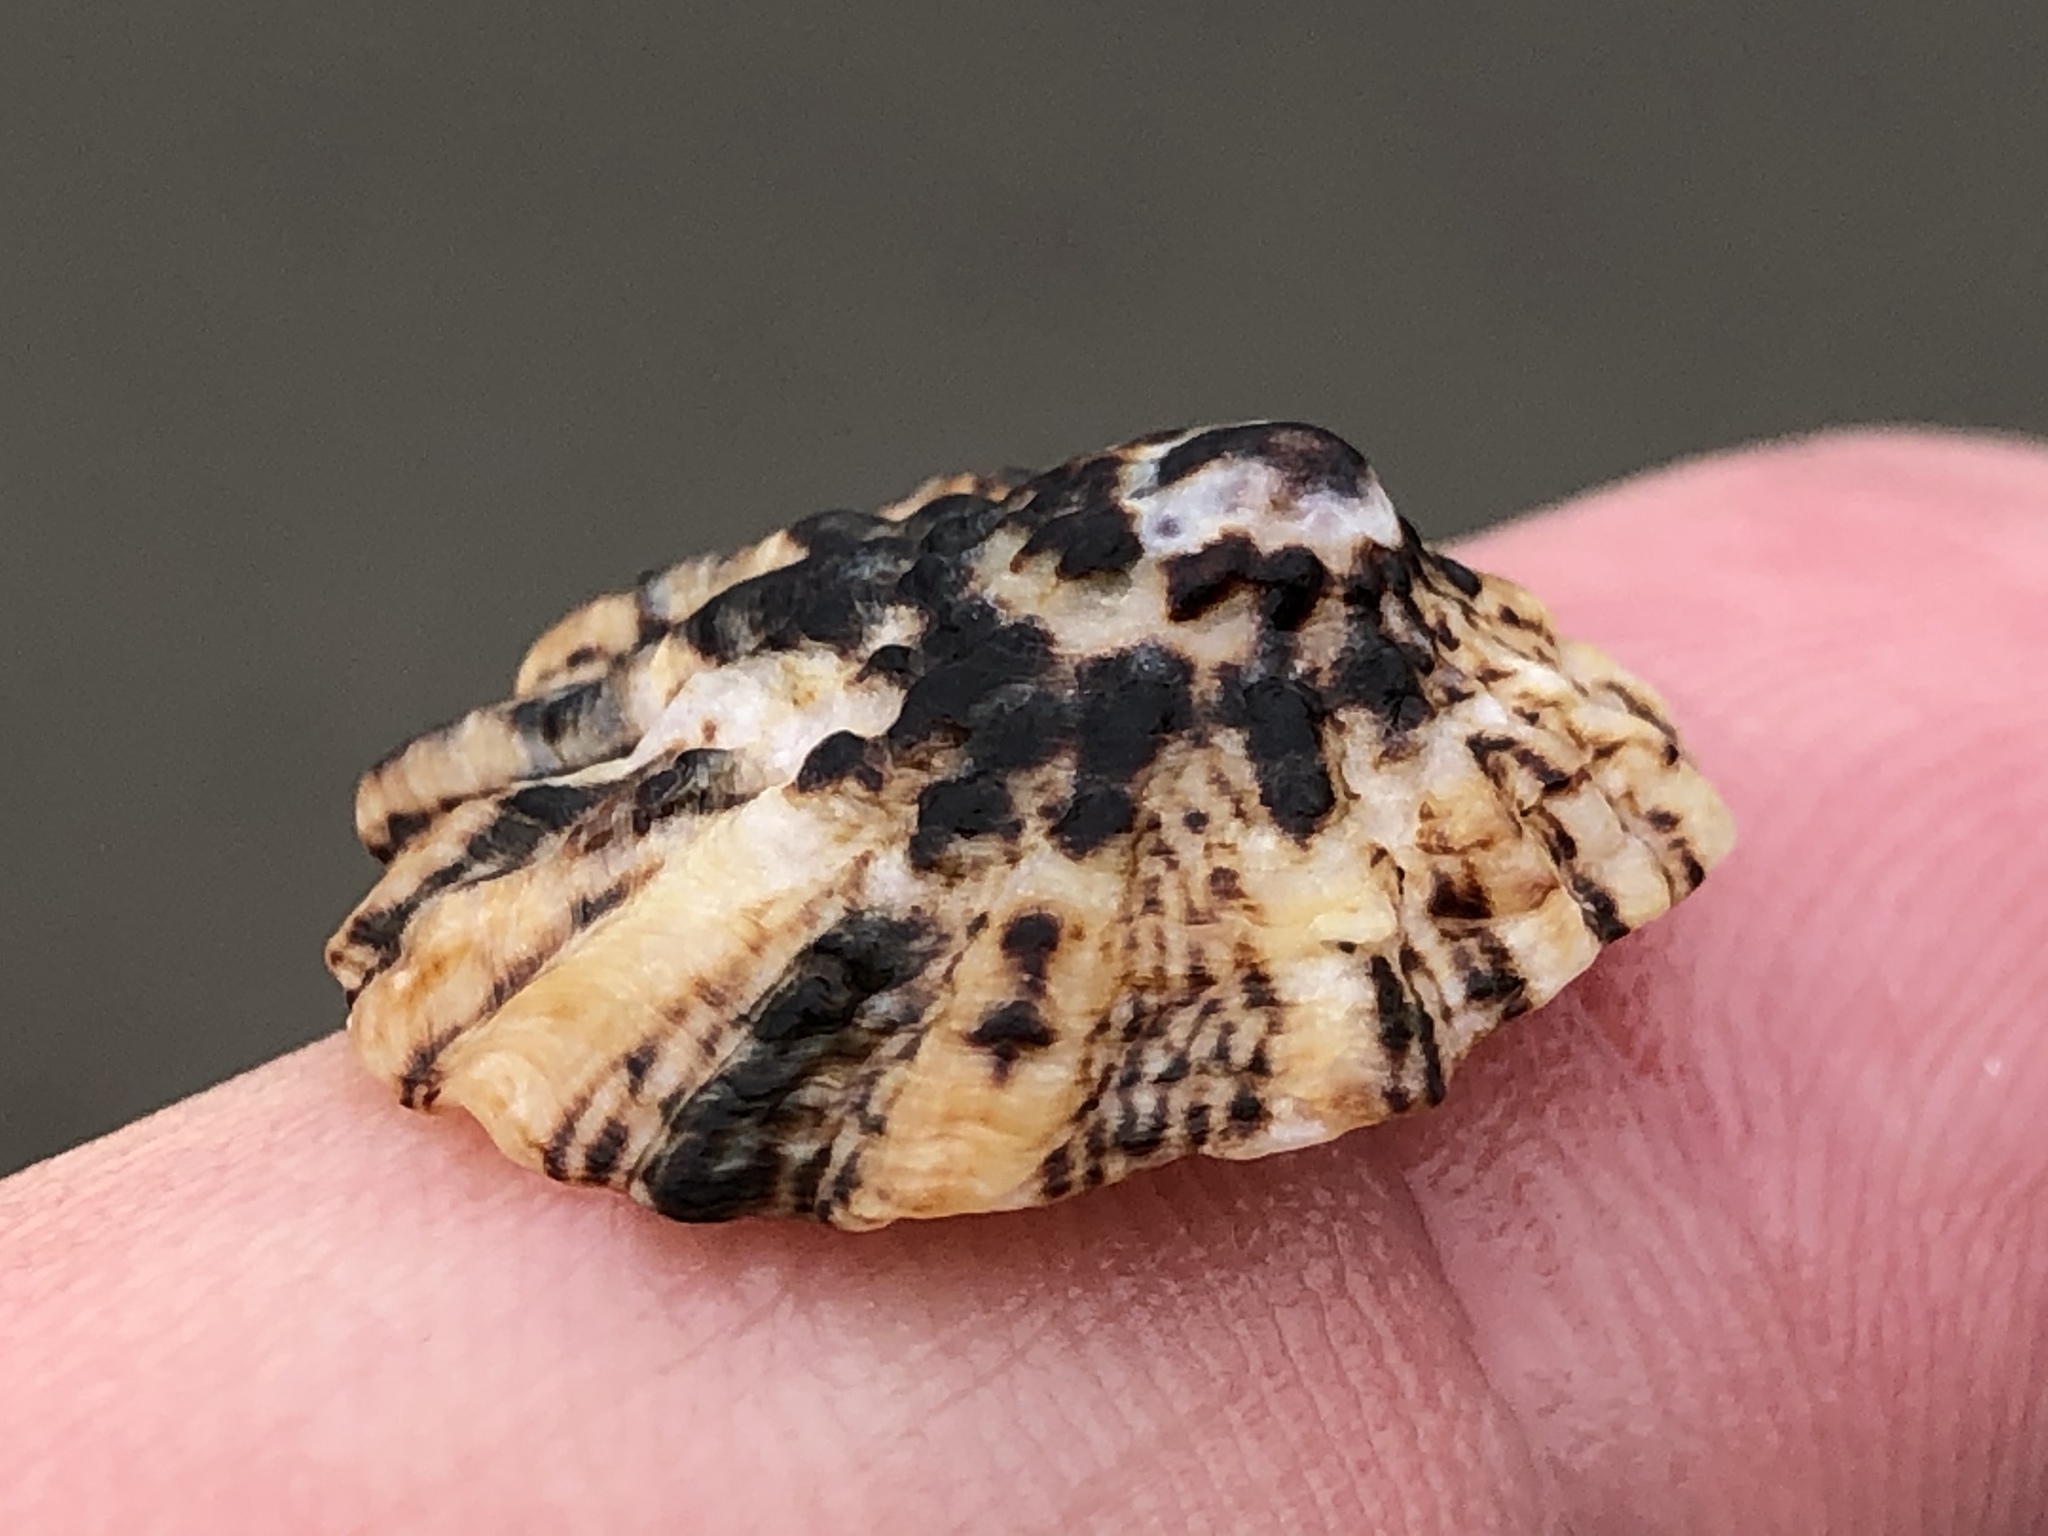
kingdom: Animalia
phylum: Mollusca
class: Gastropoda
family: Lottiidae
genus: Lottia
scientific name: Lottia scabra
